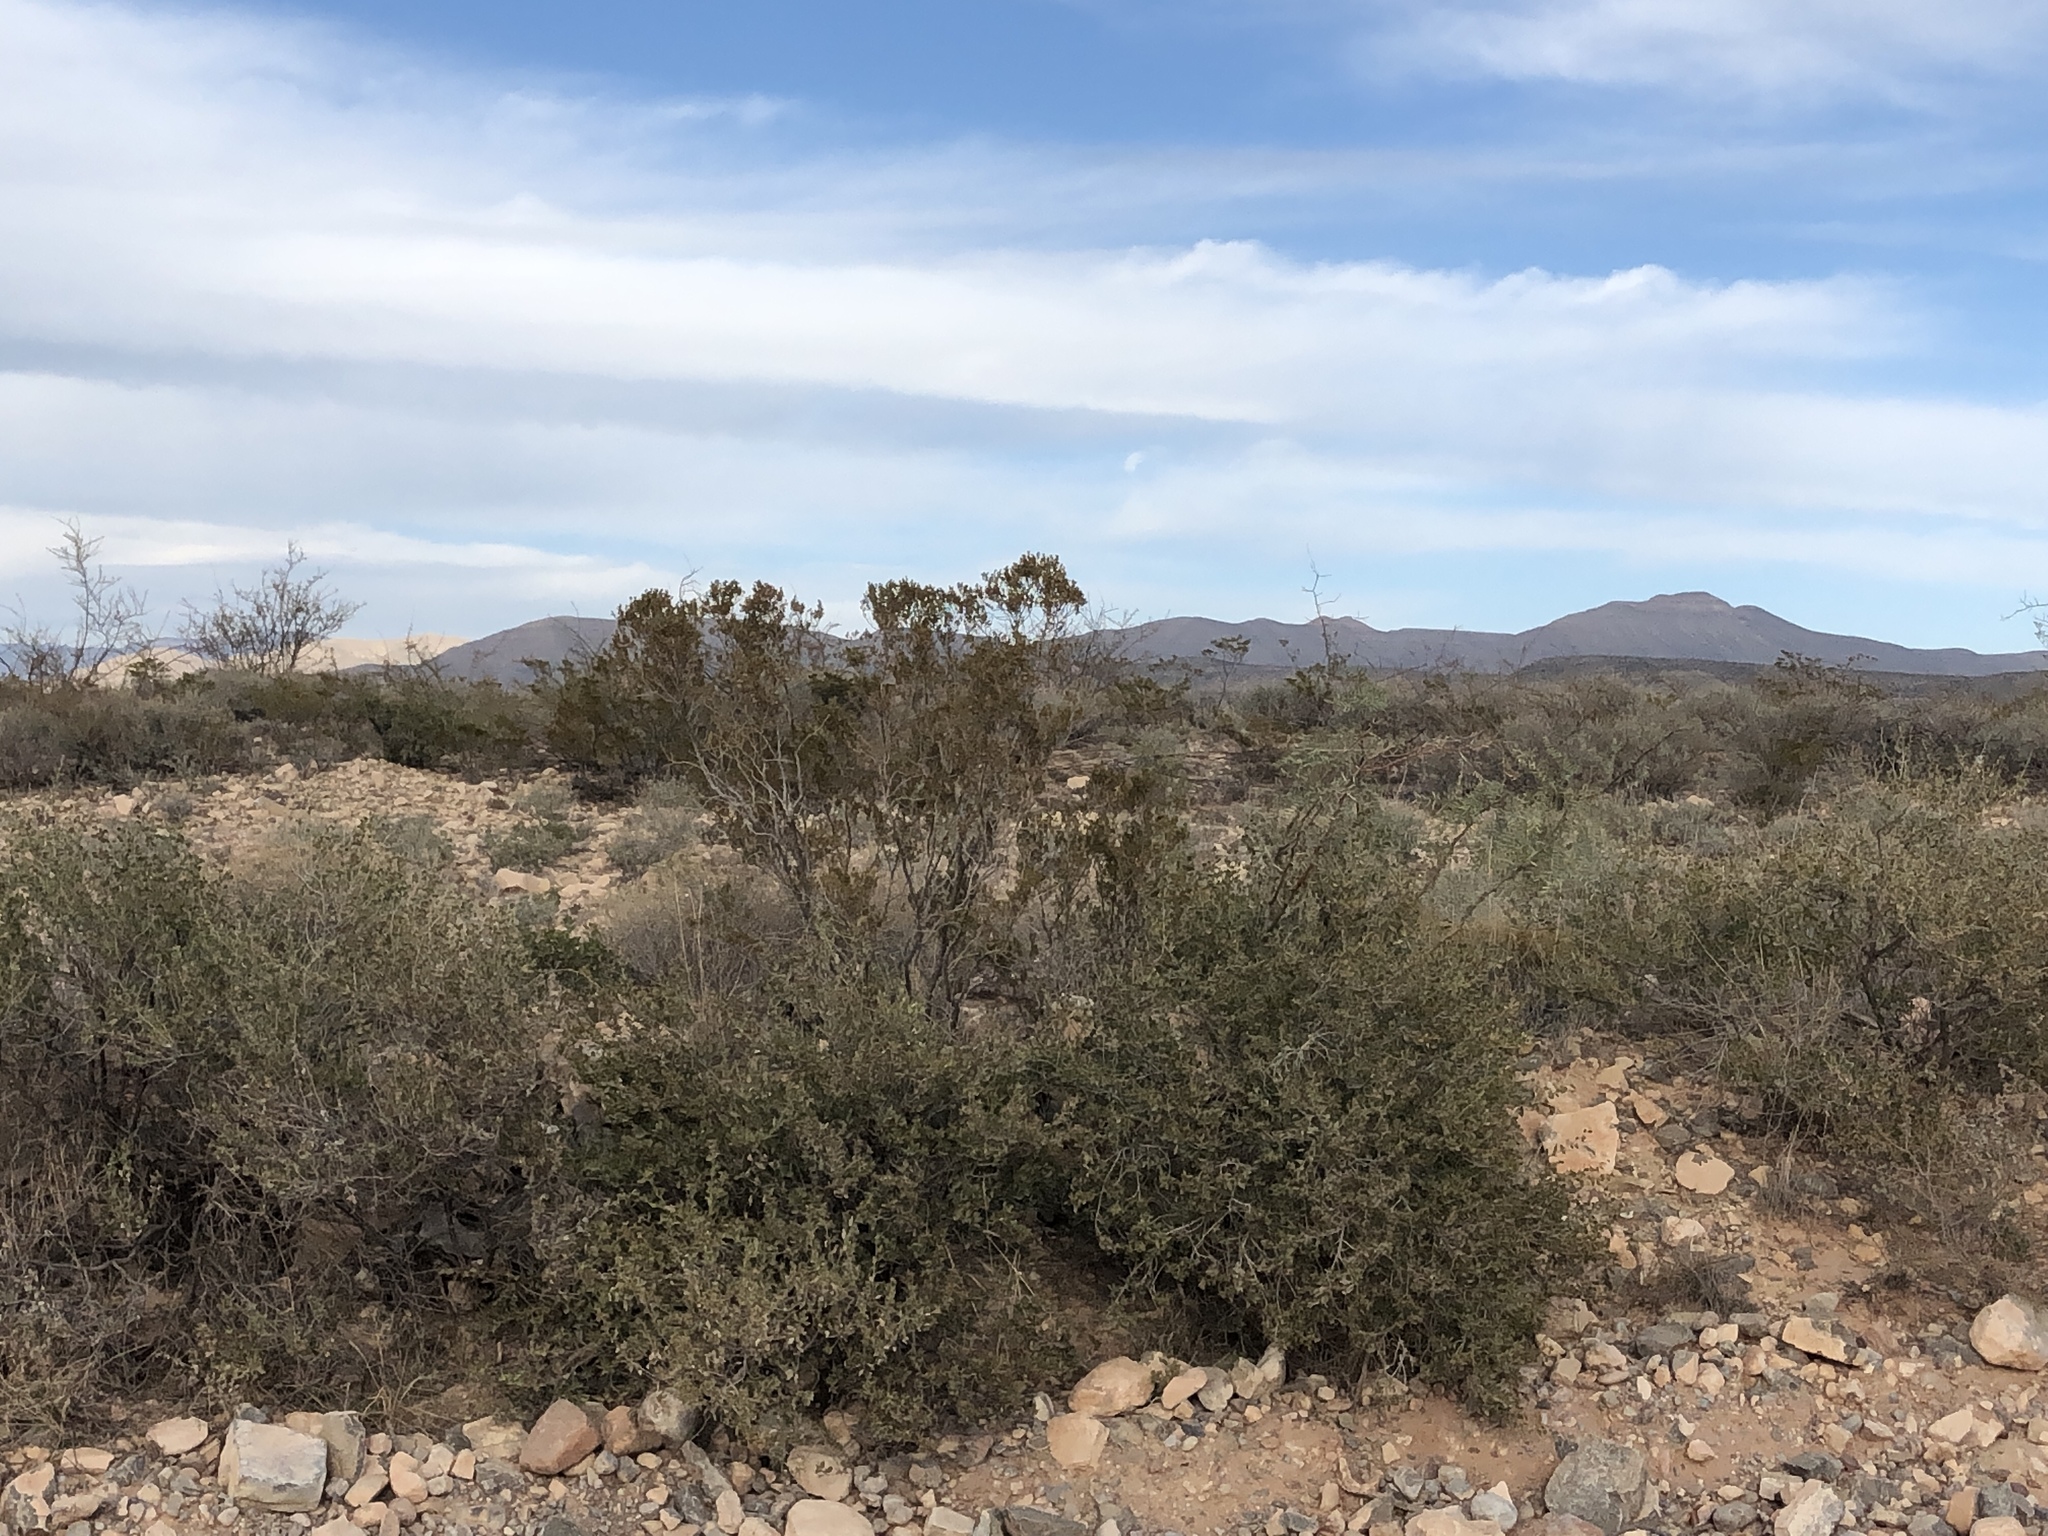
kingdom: Plantae
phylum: Tracheophyta
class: Magnoliopsida
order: Zygophyllales
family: Zygophyllaceae
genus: Larrea
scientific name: Larrea tridentata
